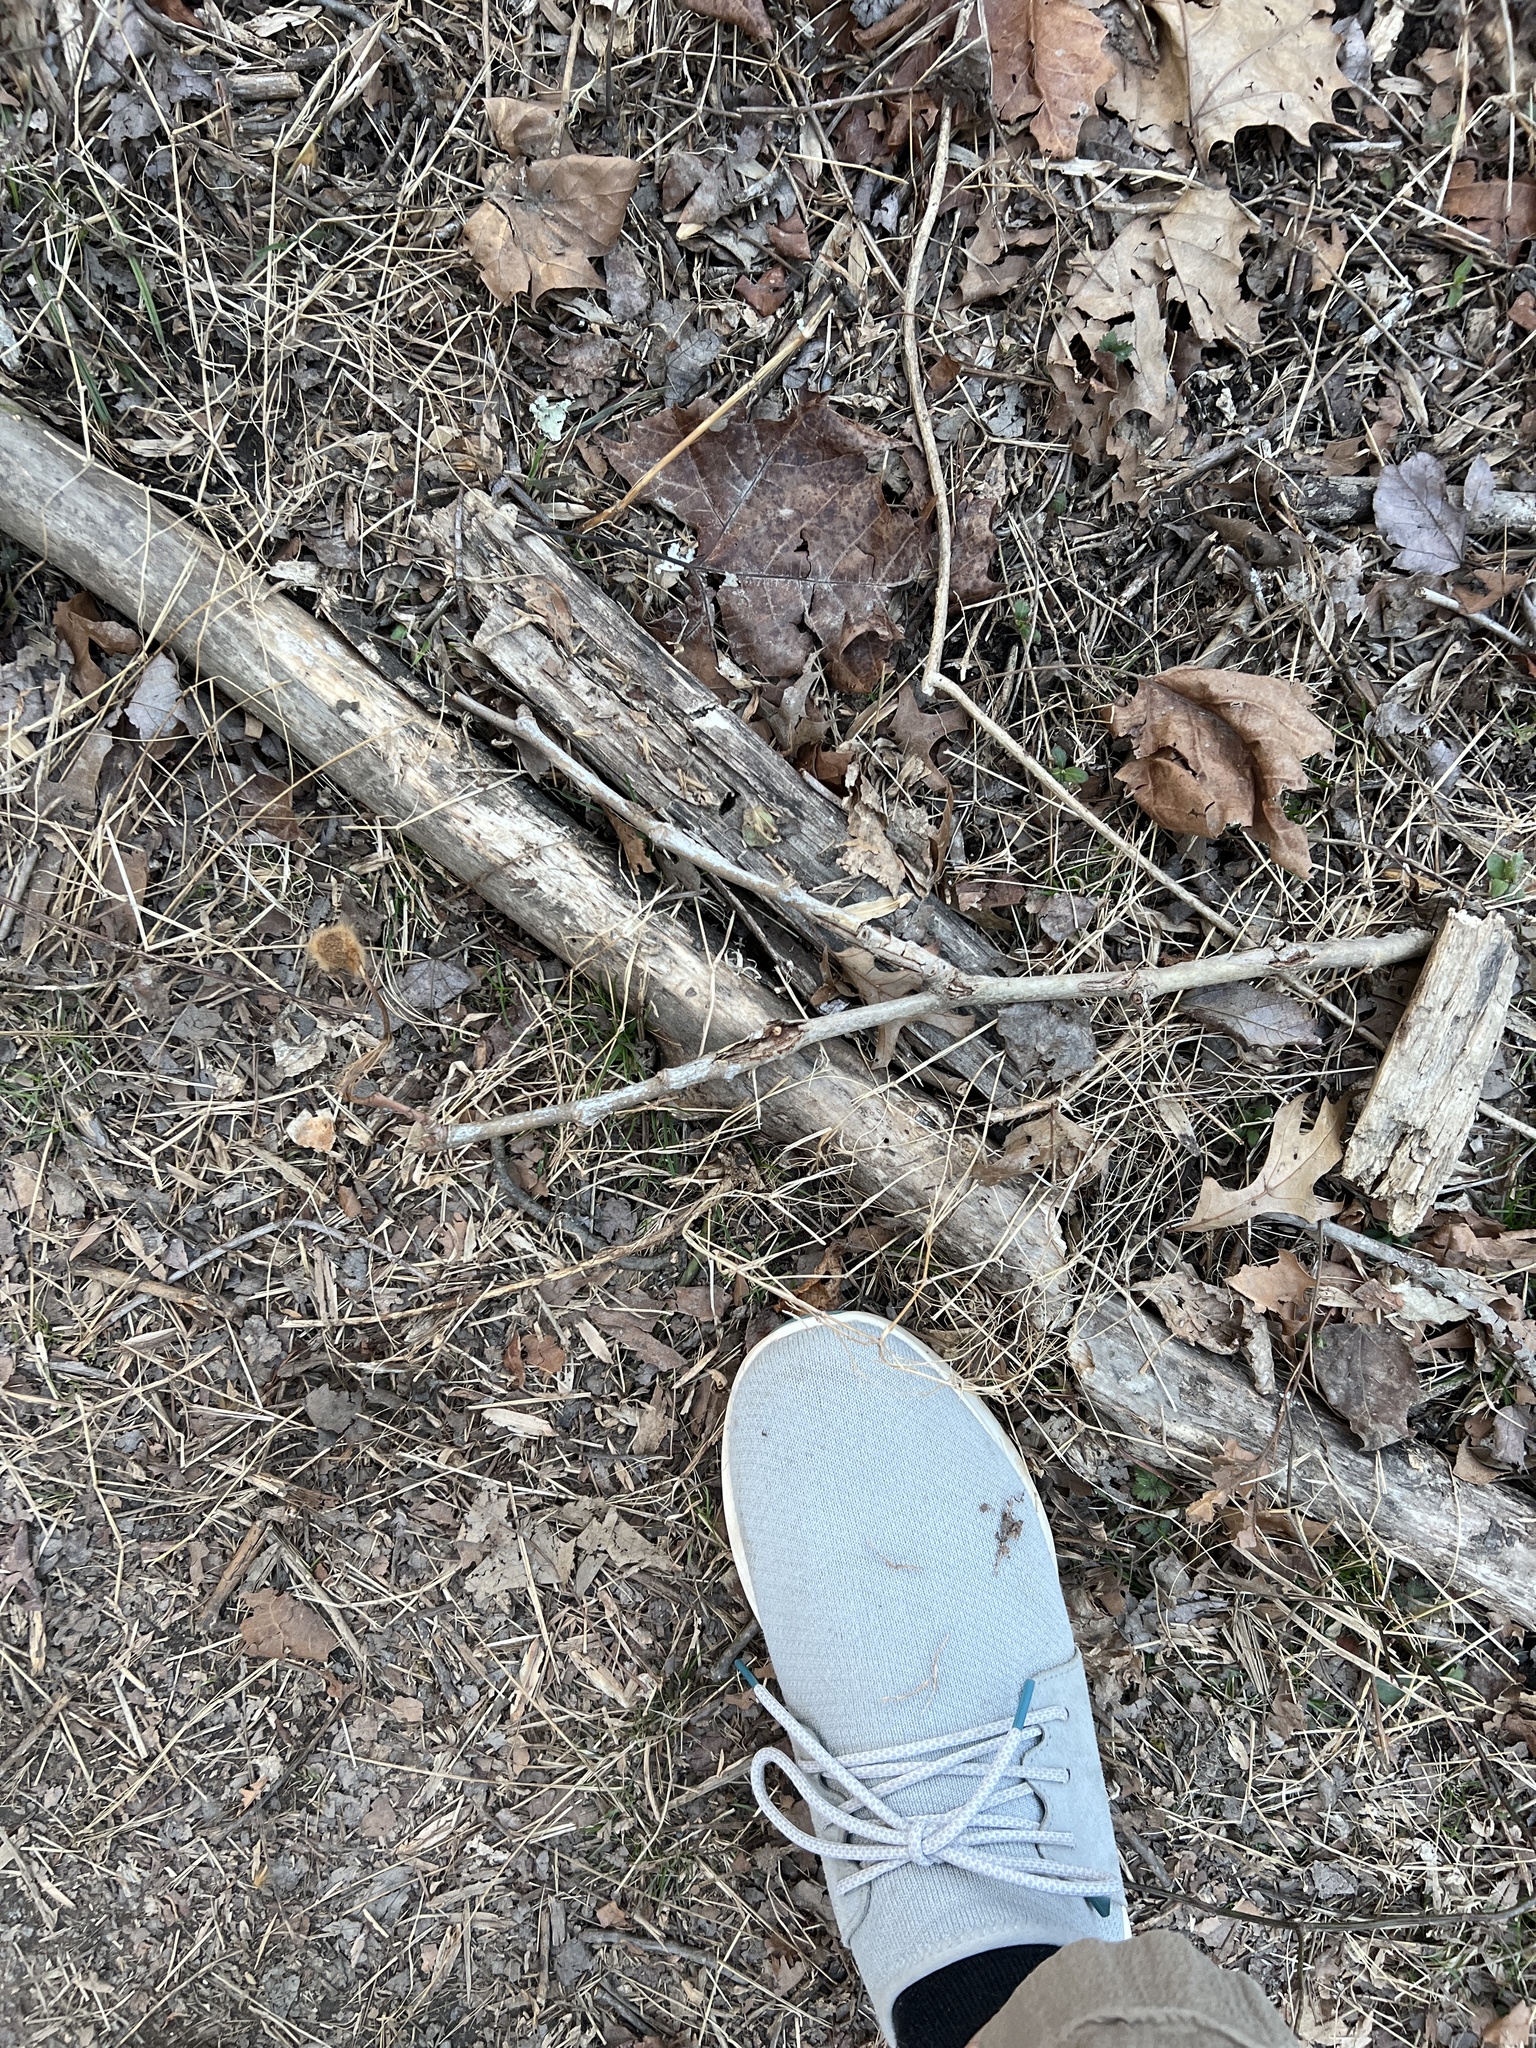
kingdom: Plantae
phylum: Tracheophyta
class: Magnoliopsida
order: Proteales
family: Platanaceae
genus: Platanus
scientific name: Platanus occidentalis
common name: American sycamore
